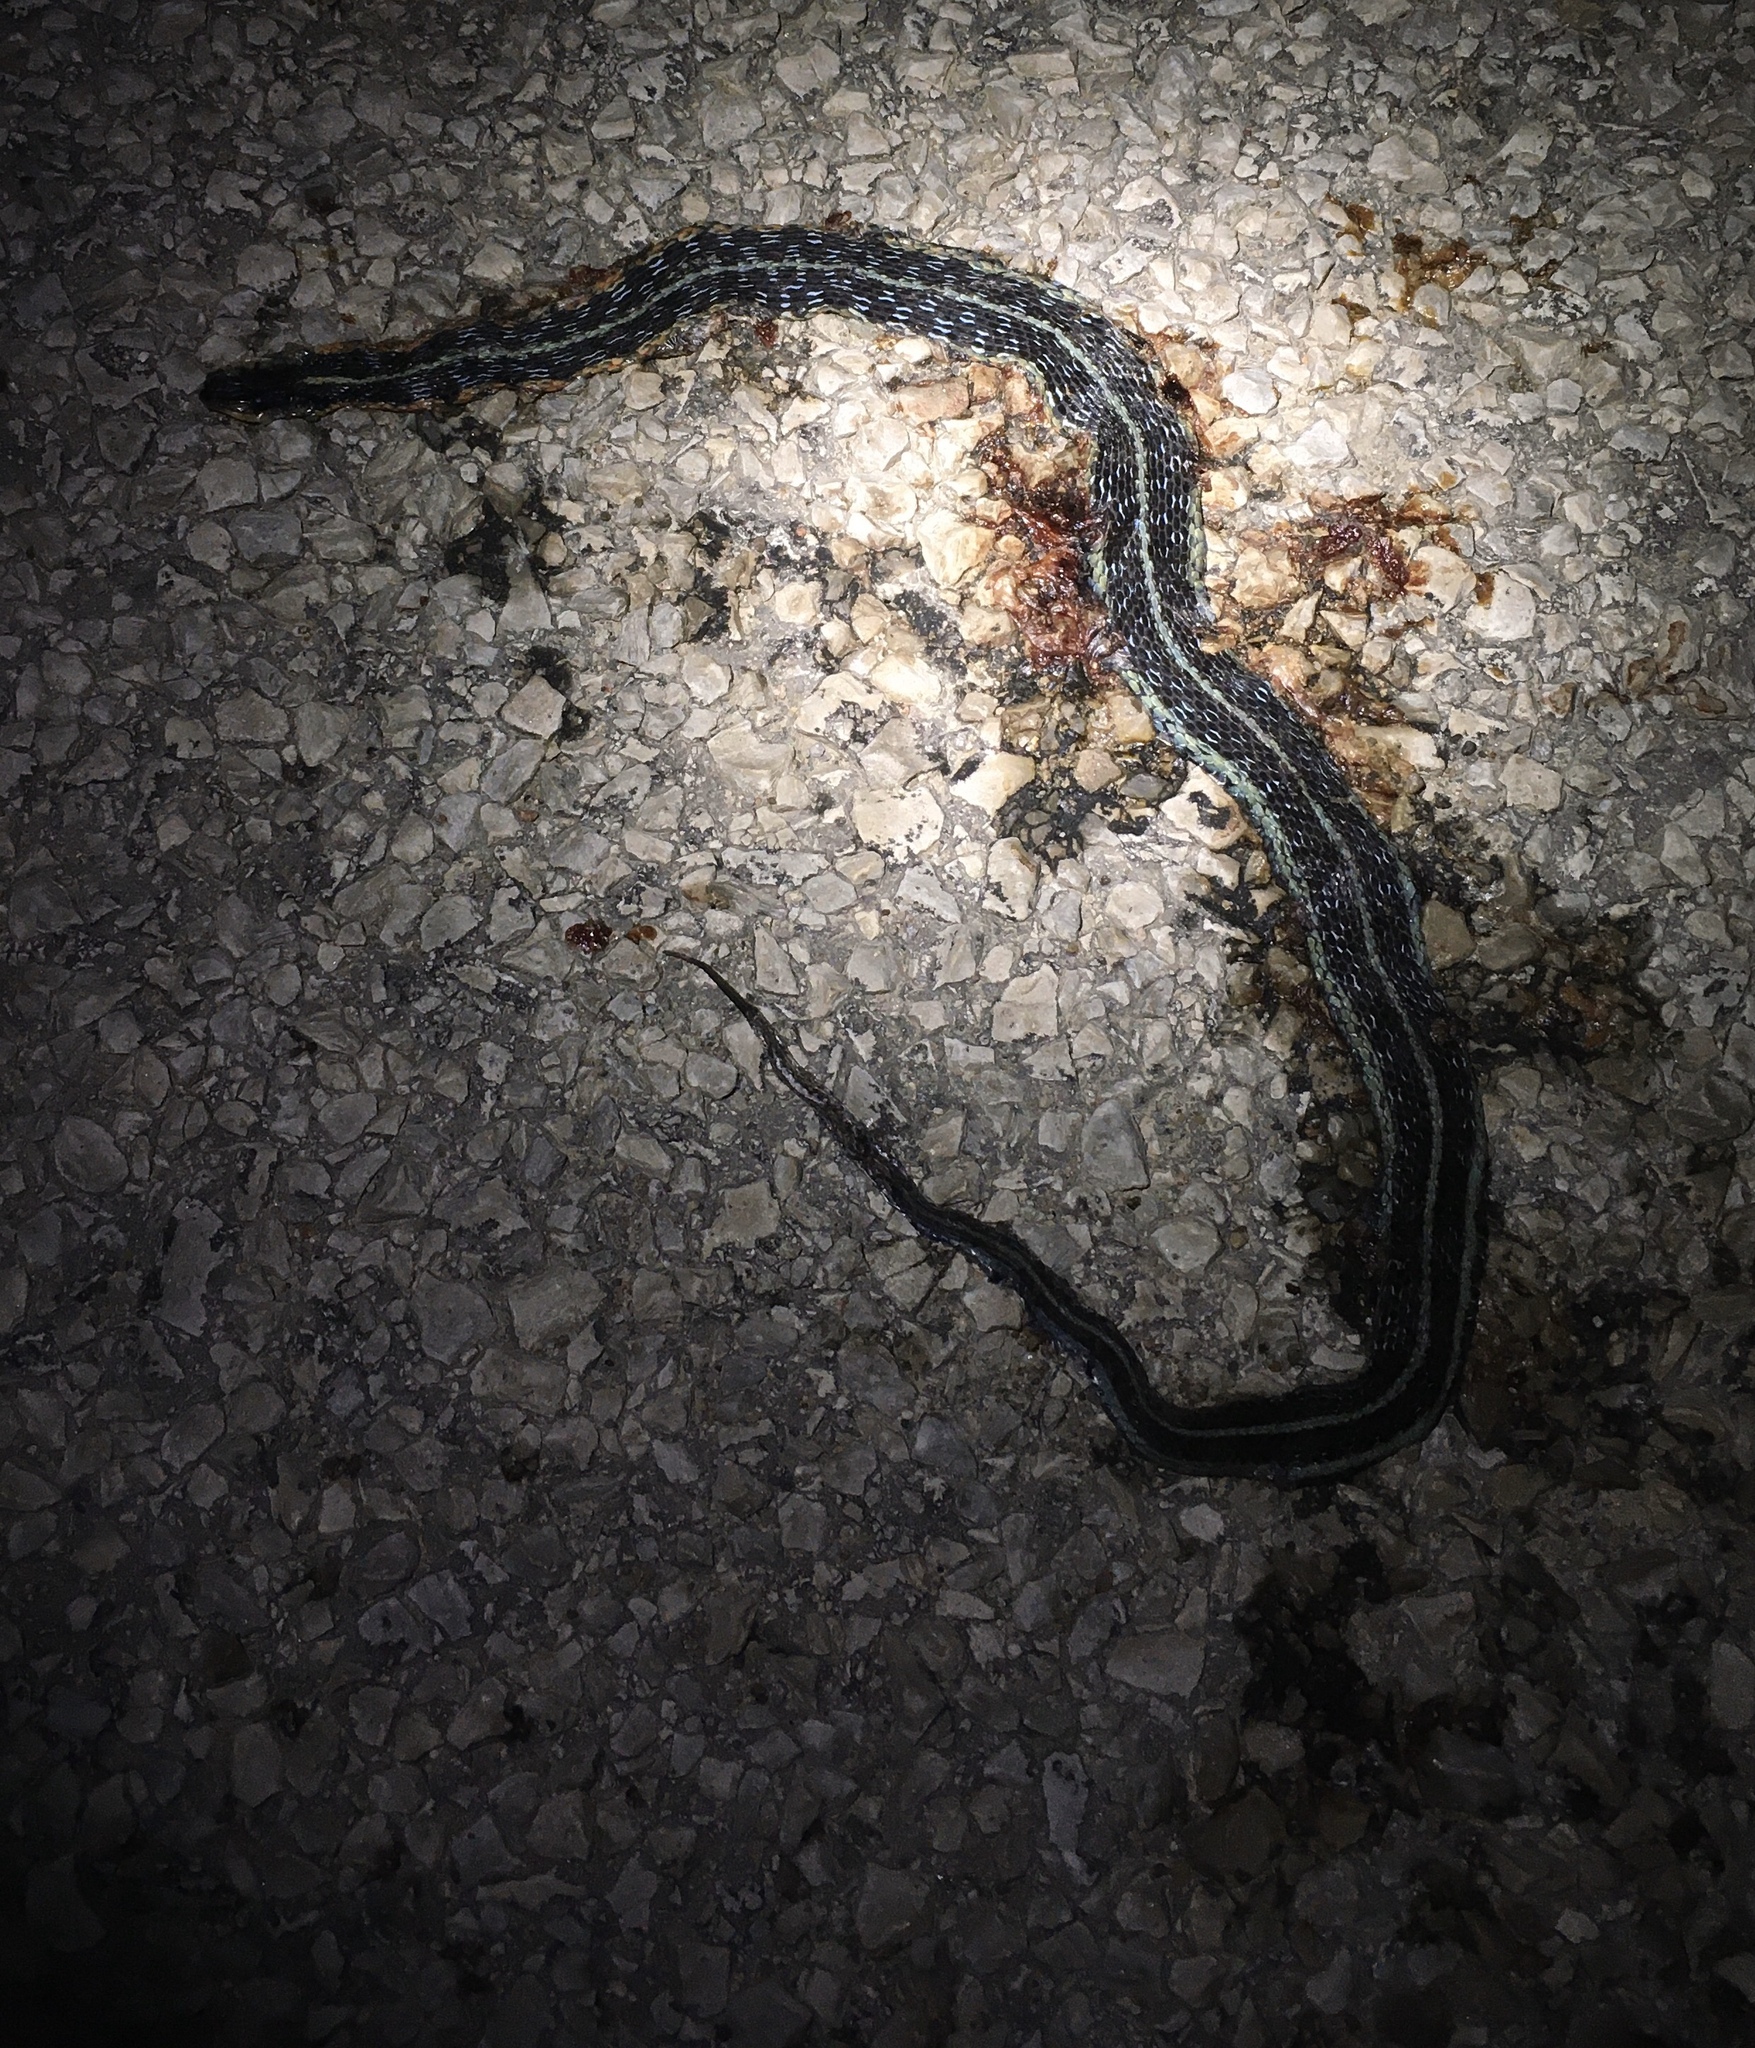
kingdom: Animalia
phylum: Chordata
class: Squamata
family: Colubridae
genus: Thamnophis
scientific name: Thamnophis sirtalis
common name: Common garter snake
